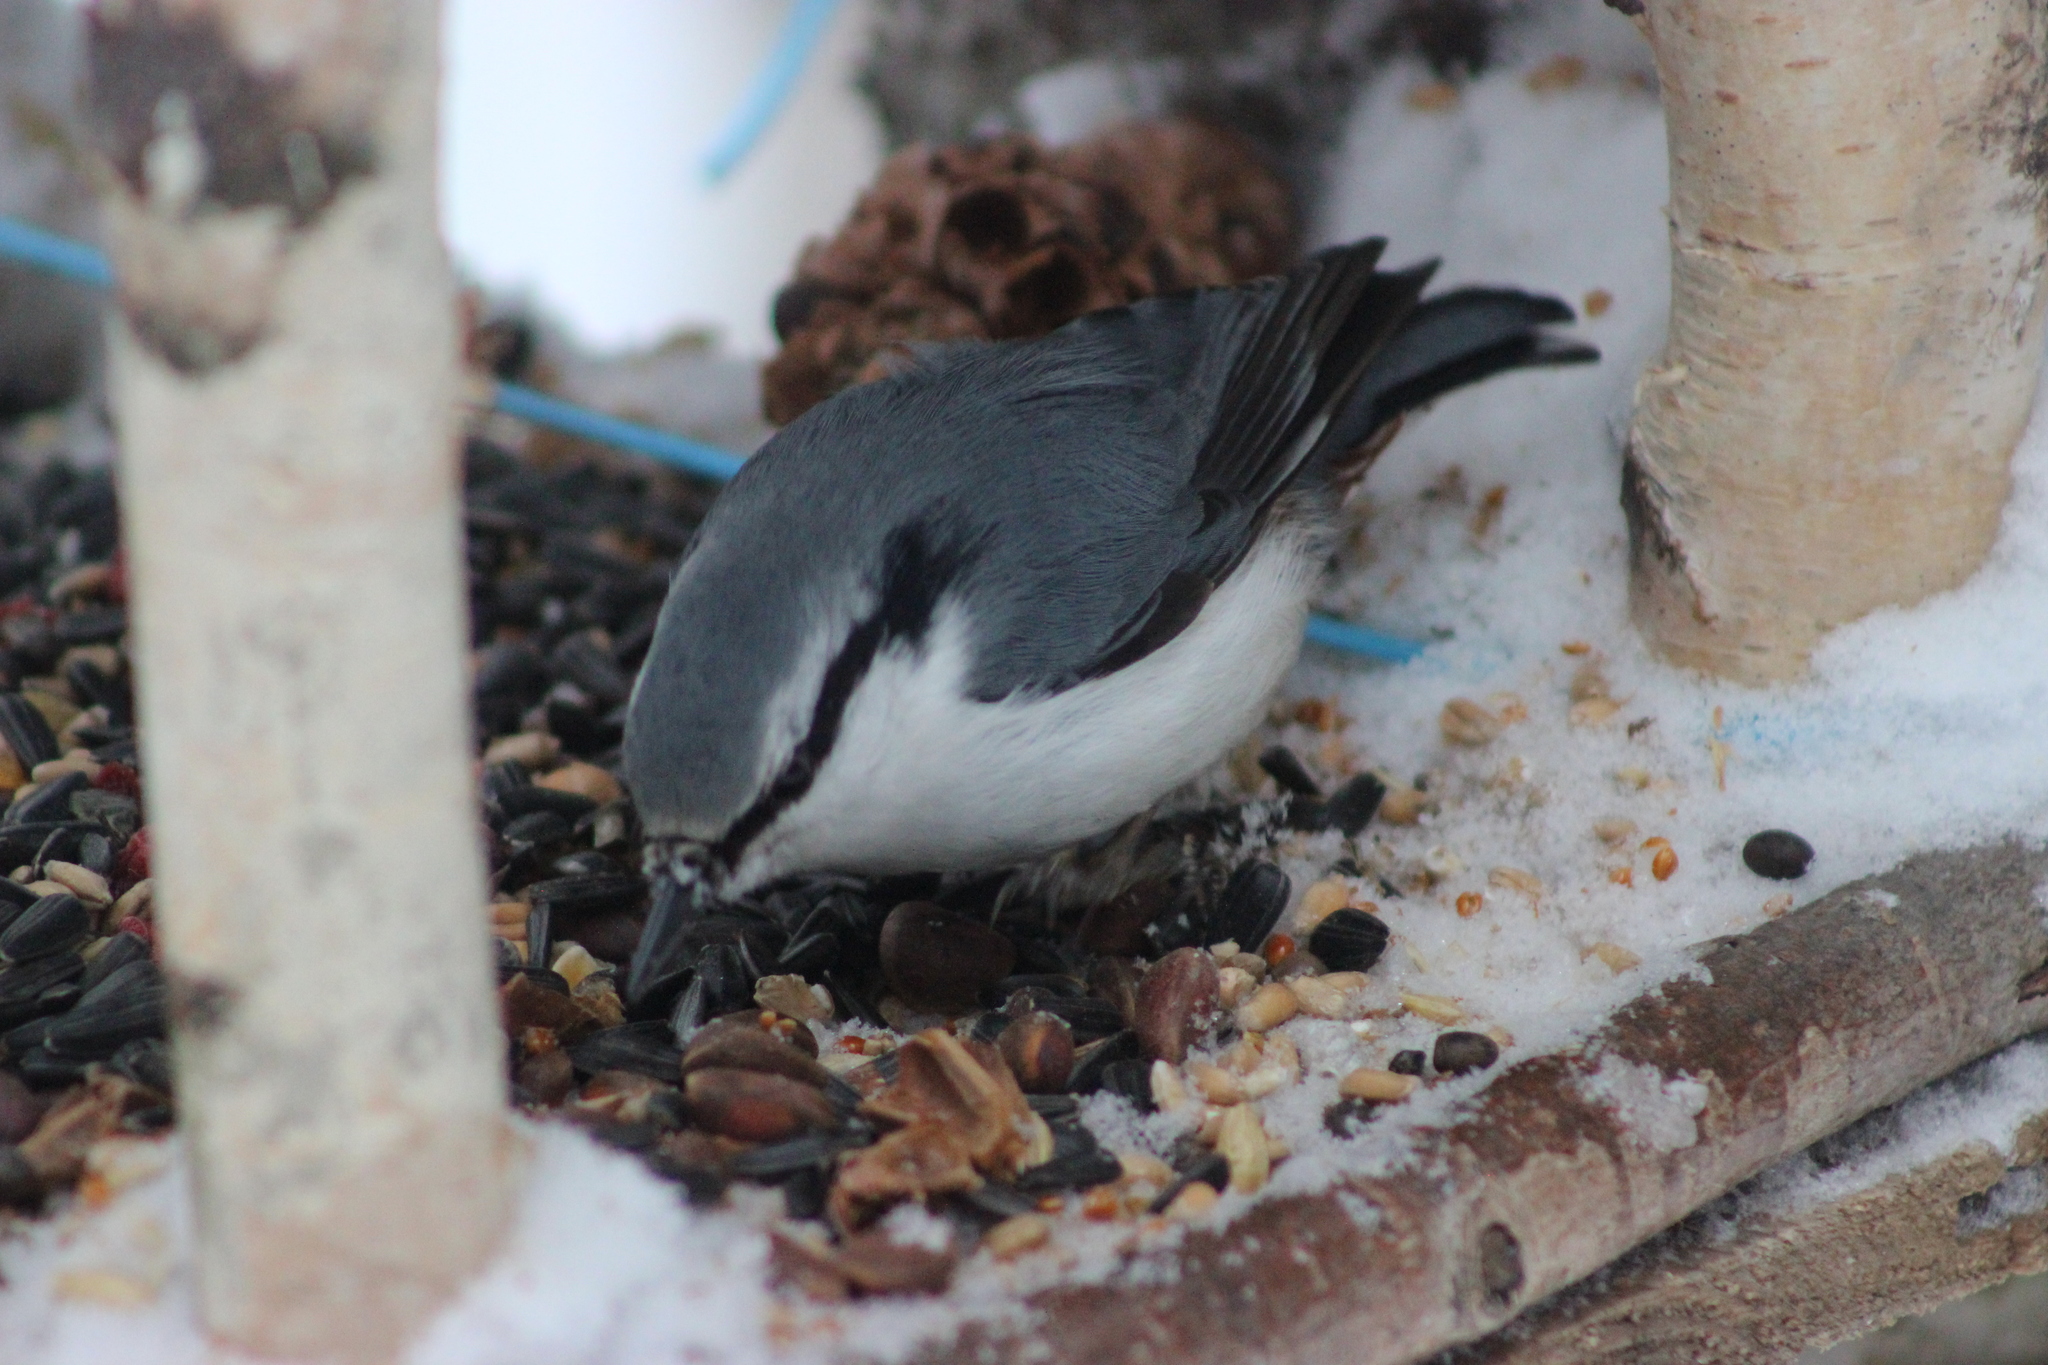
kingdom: Animalia
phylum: Chordata
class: Aves
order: Passeriformes
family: Sittidae
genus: Sitta
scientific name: Sitta europaea
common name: Eurasian nuthatch
